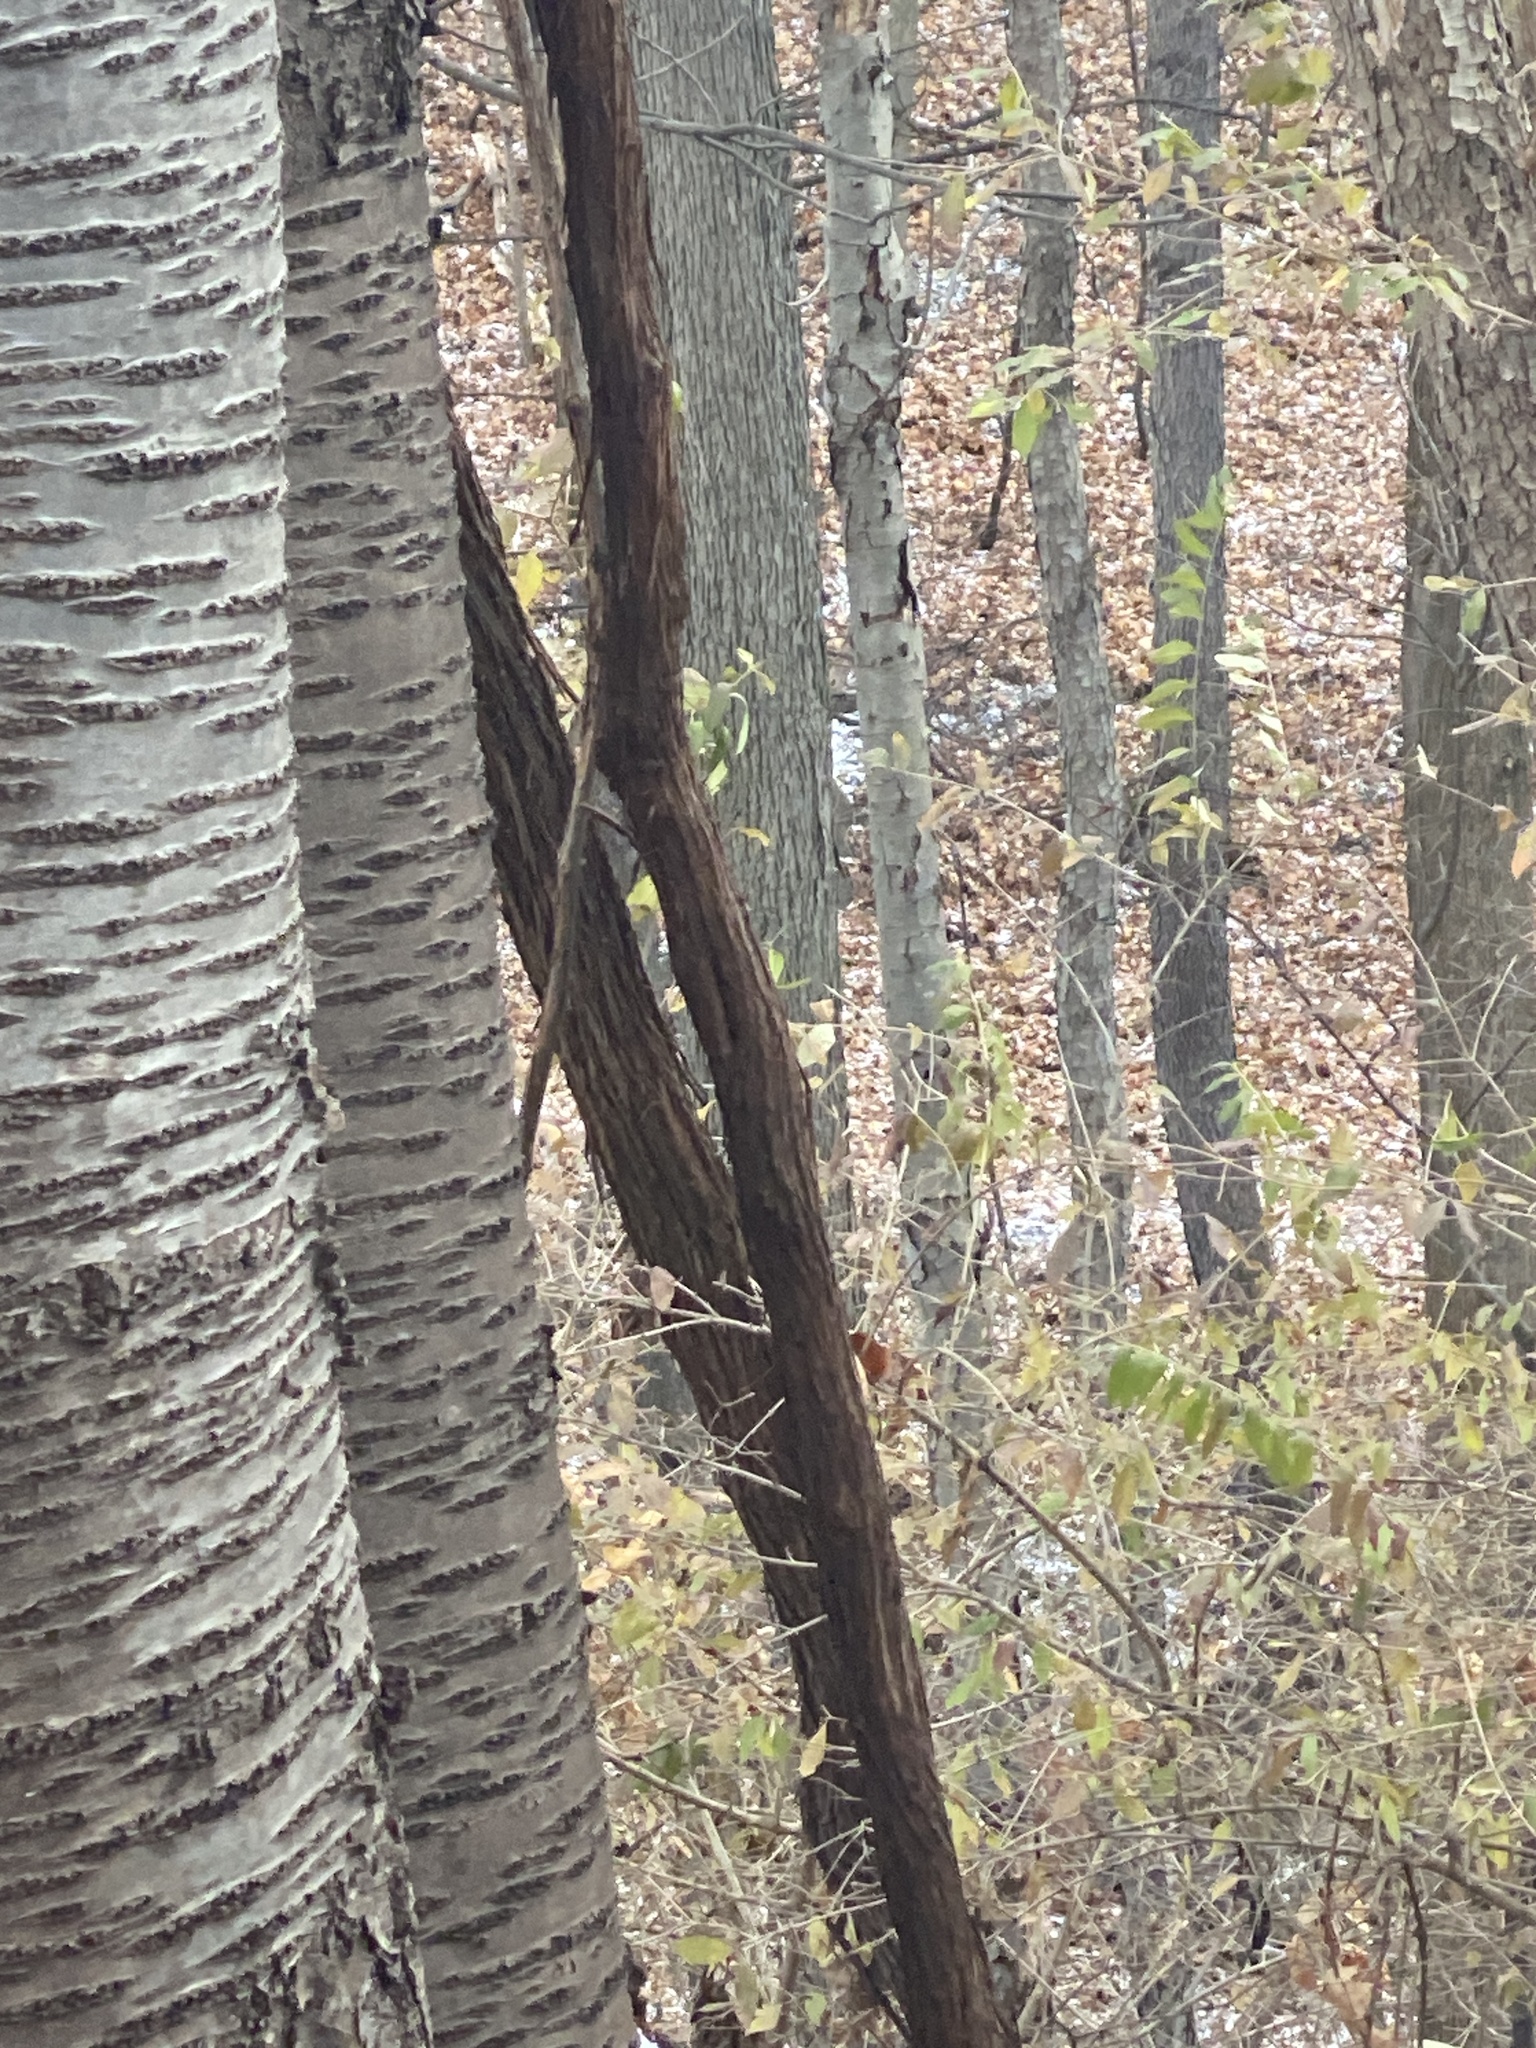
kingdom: Plantae
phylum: Tracheophyta
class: Magnoliopsida
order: Vitales
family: Vitaceae
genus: Vitis
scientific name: Vitis riparia
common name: Frost grape
